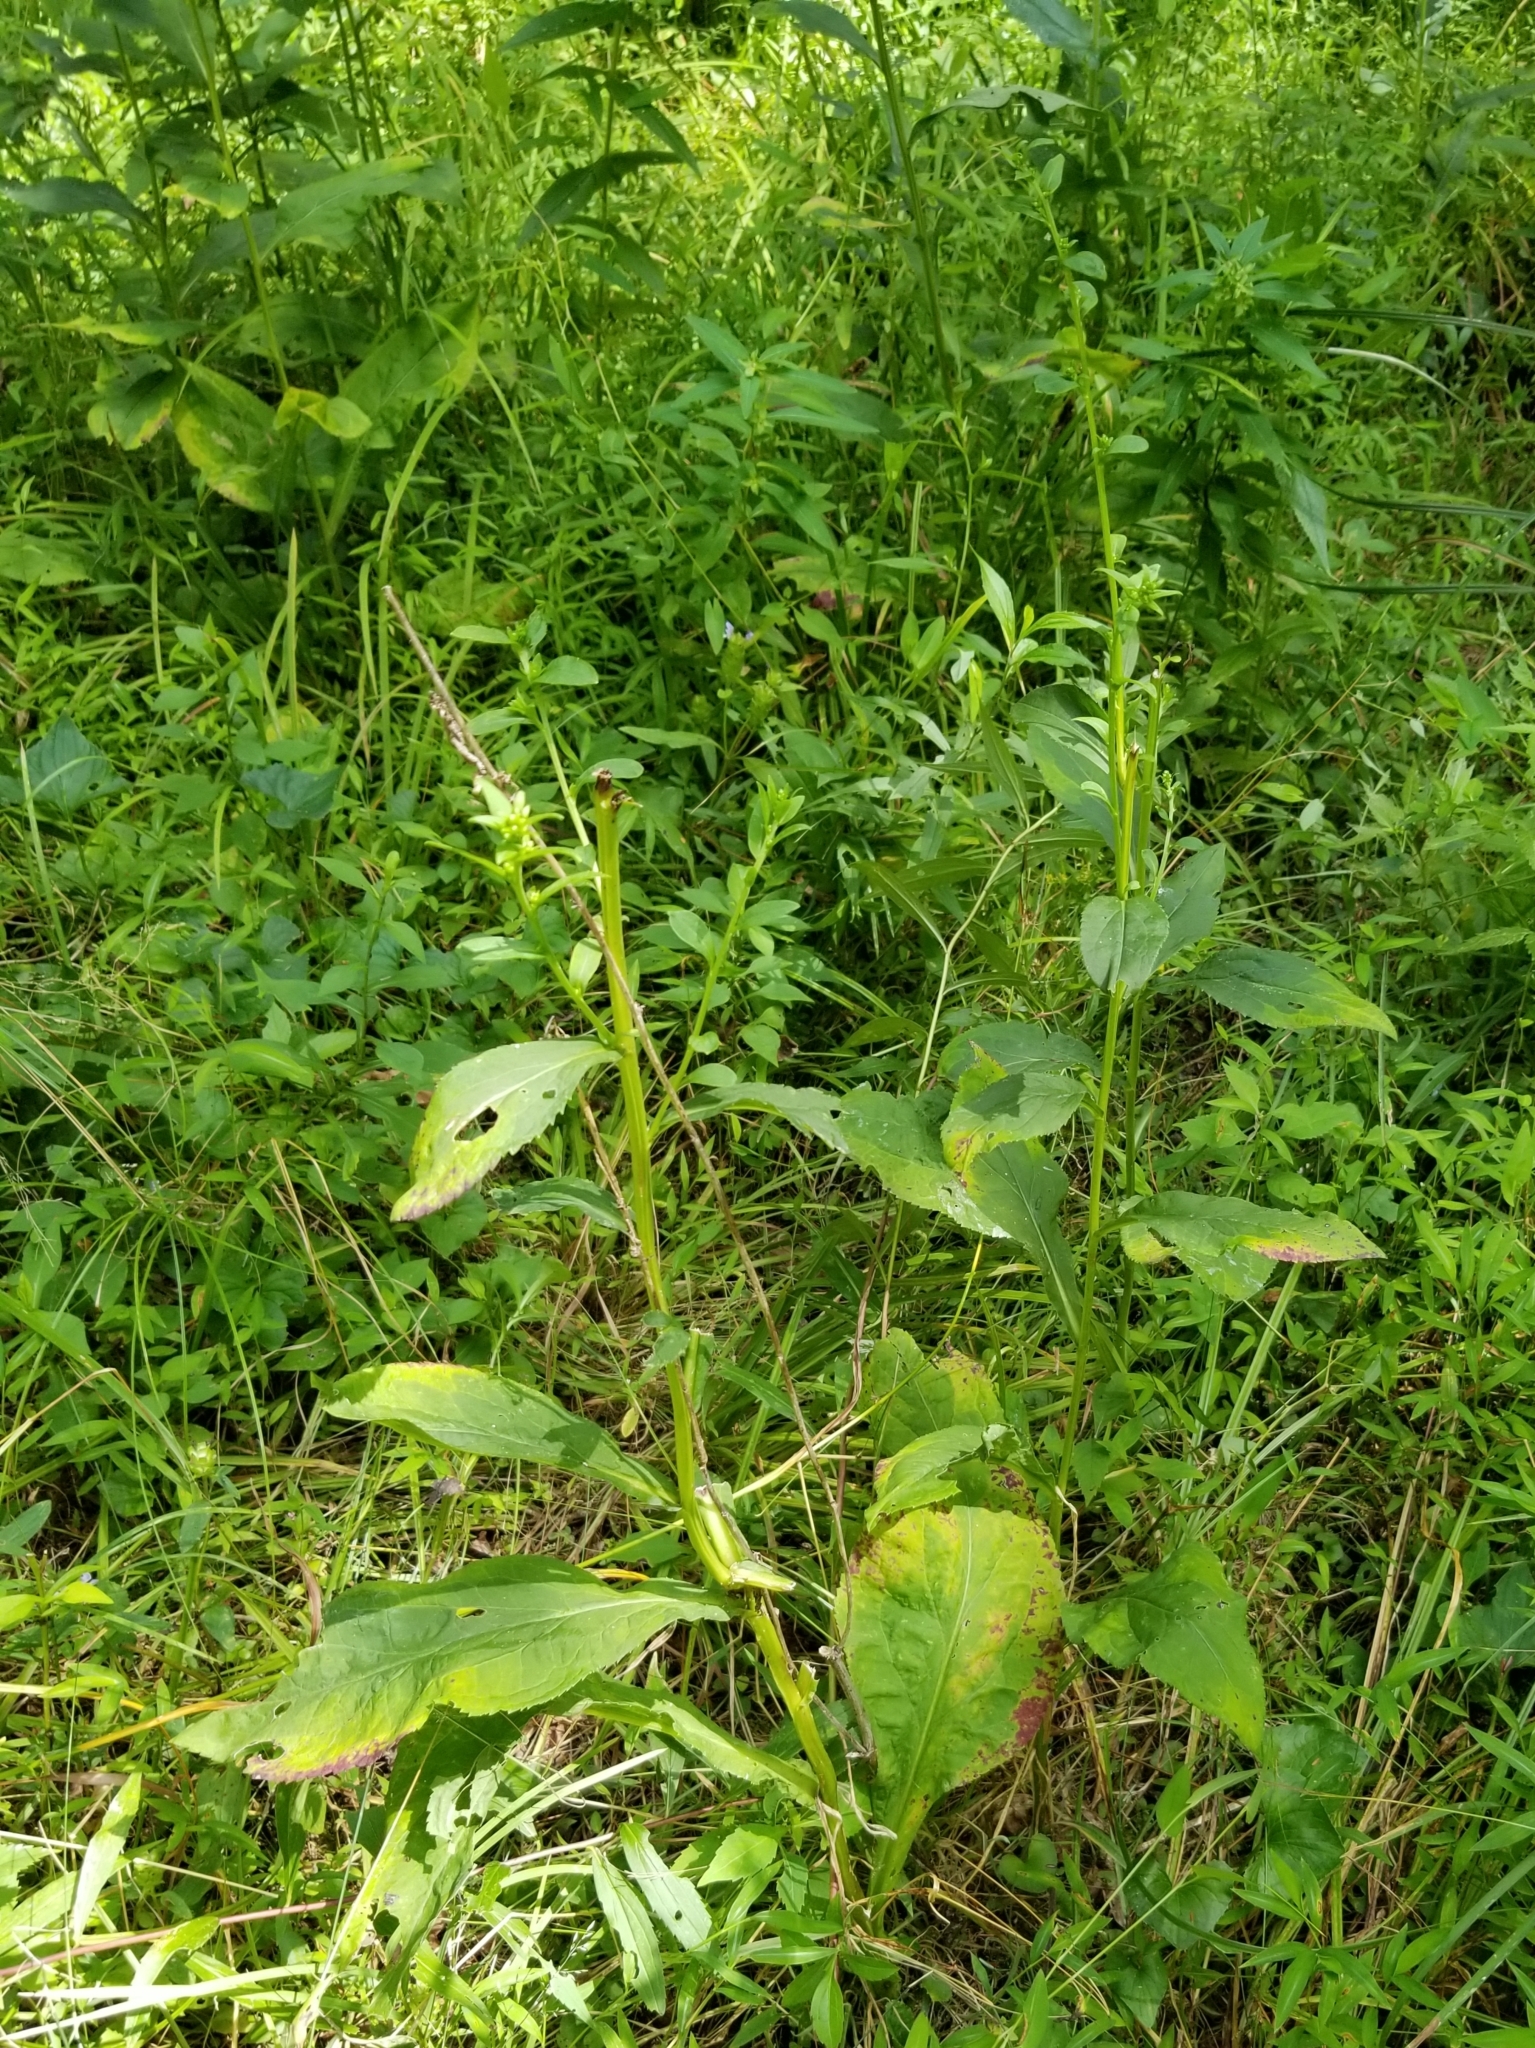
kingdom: Plantae
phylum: Tracheophyta
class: Magnoliopsida
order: Asterales
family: Asteraceae
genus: Solidago
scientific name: Solidago patula
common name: Rough-leaf goldenrod
